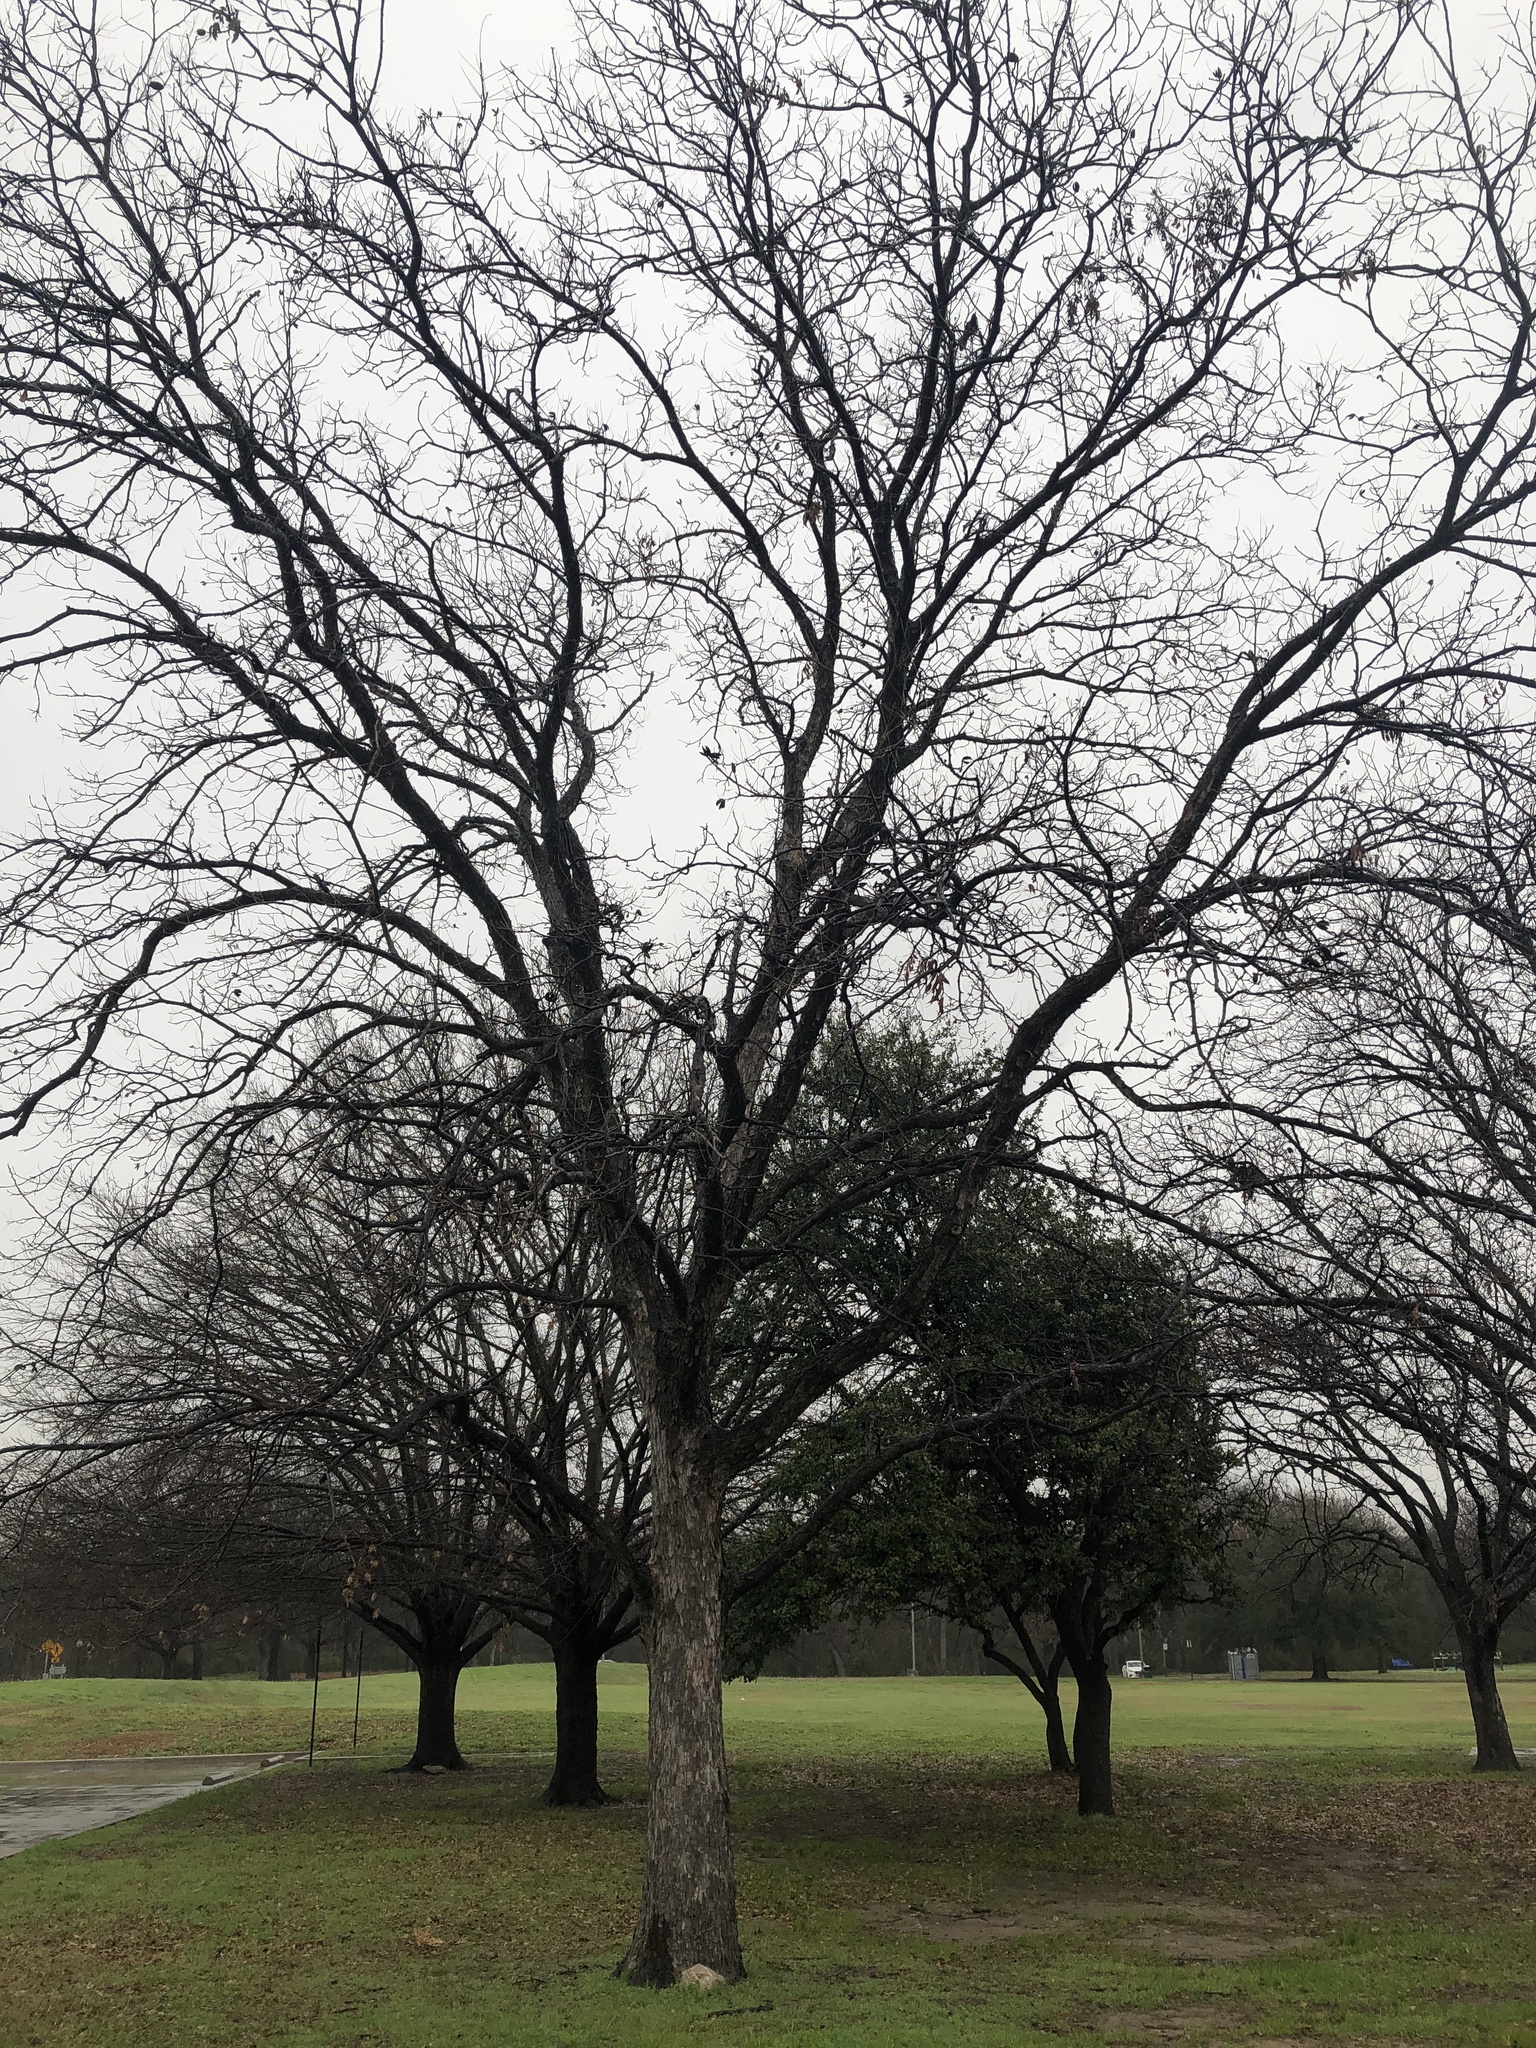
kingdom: Plantae
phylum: Tracheophyta
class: Magnoliopsida
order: Fagales
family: Juglandaceae
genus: Carya
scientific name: Carya illinoinensis
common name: Pecan
